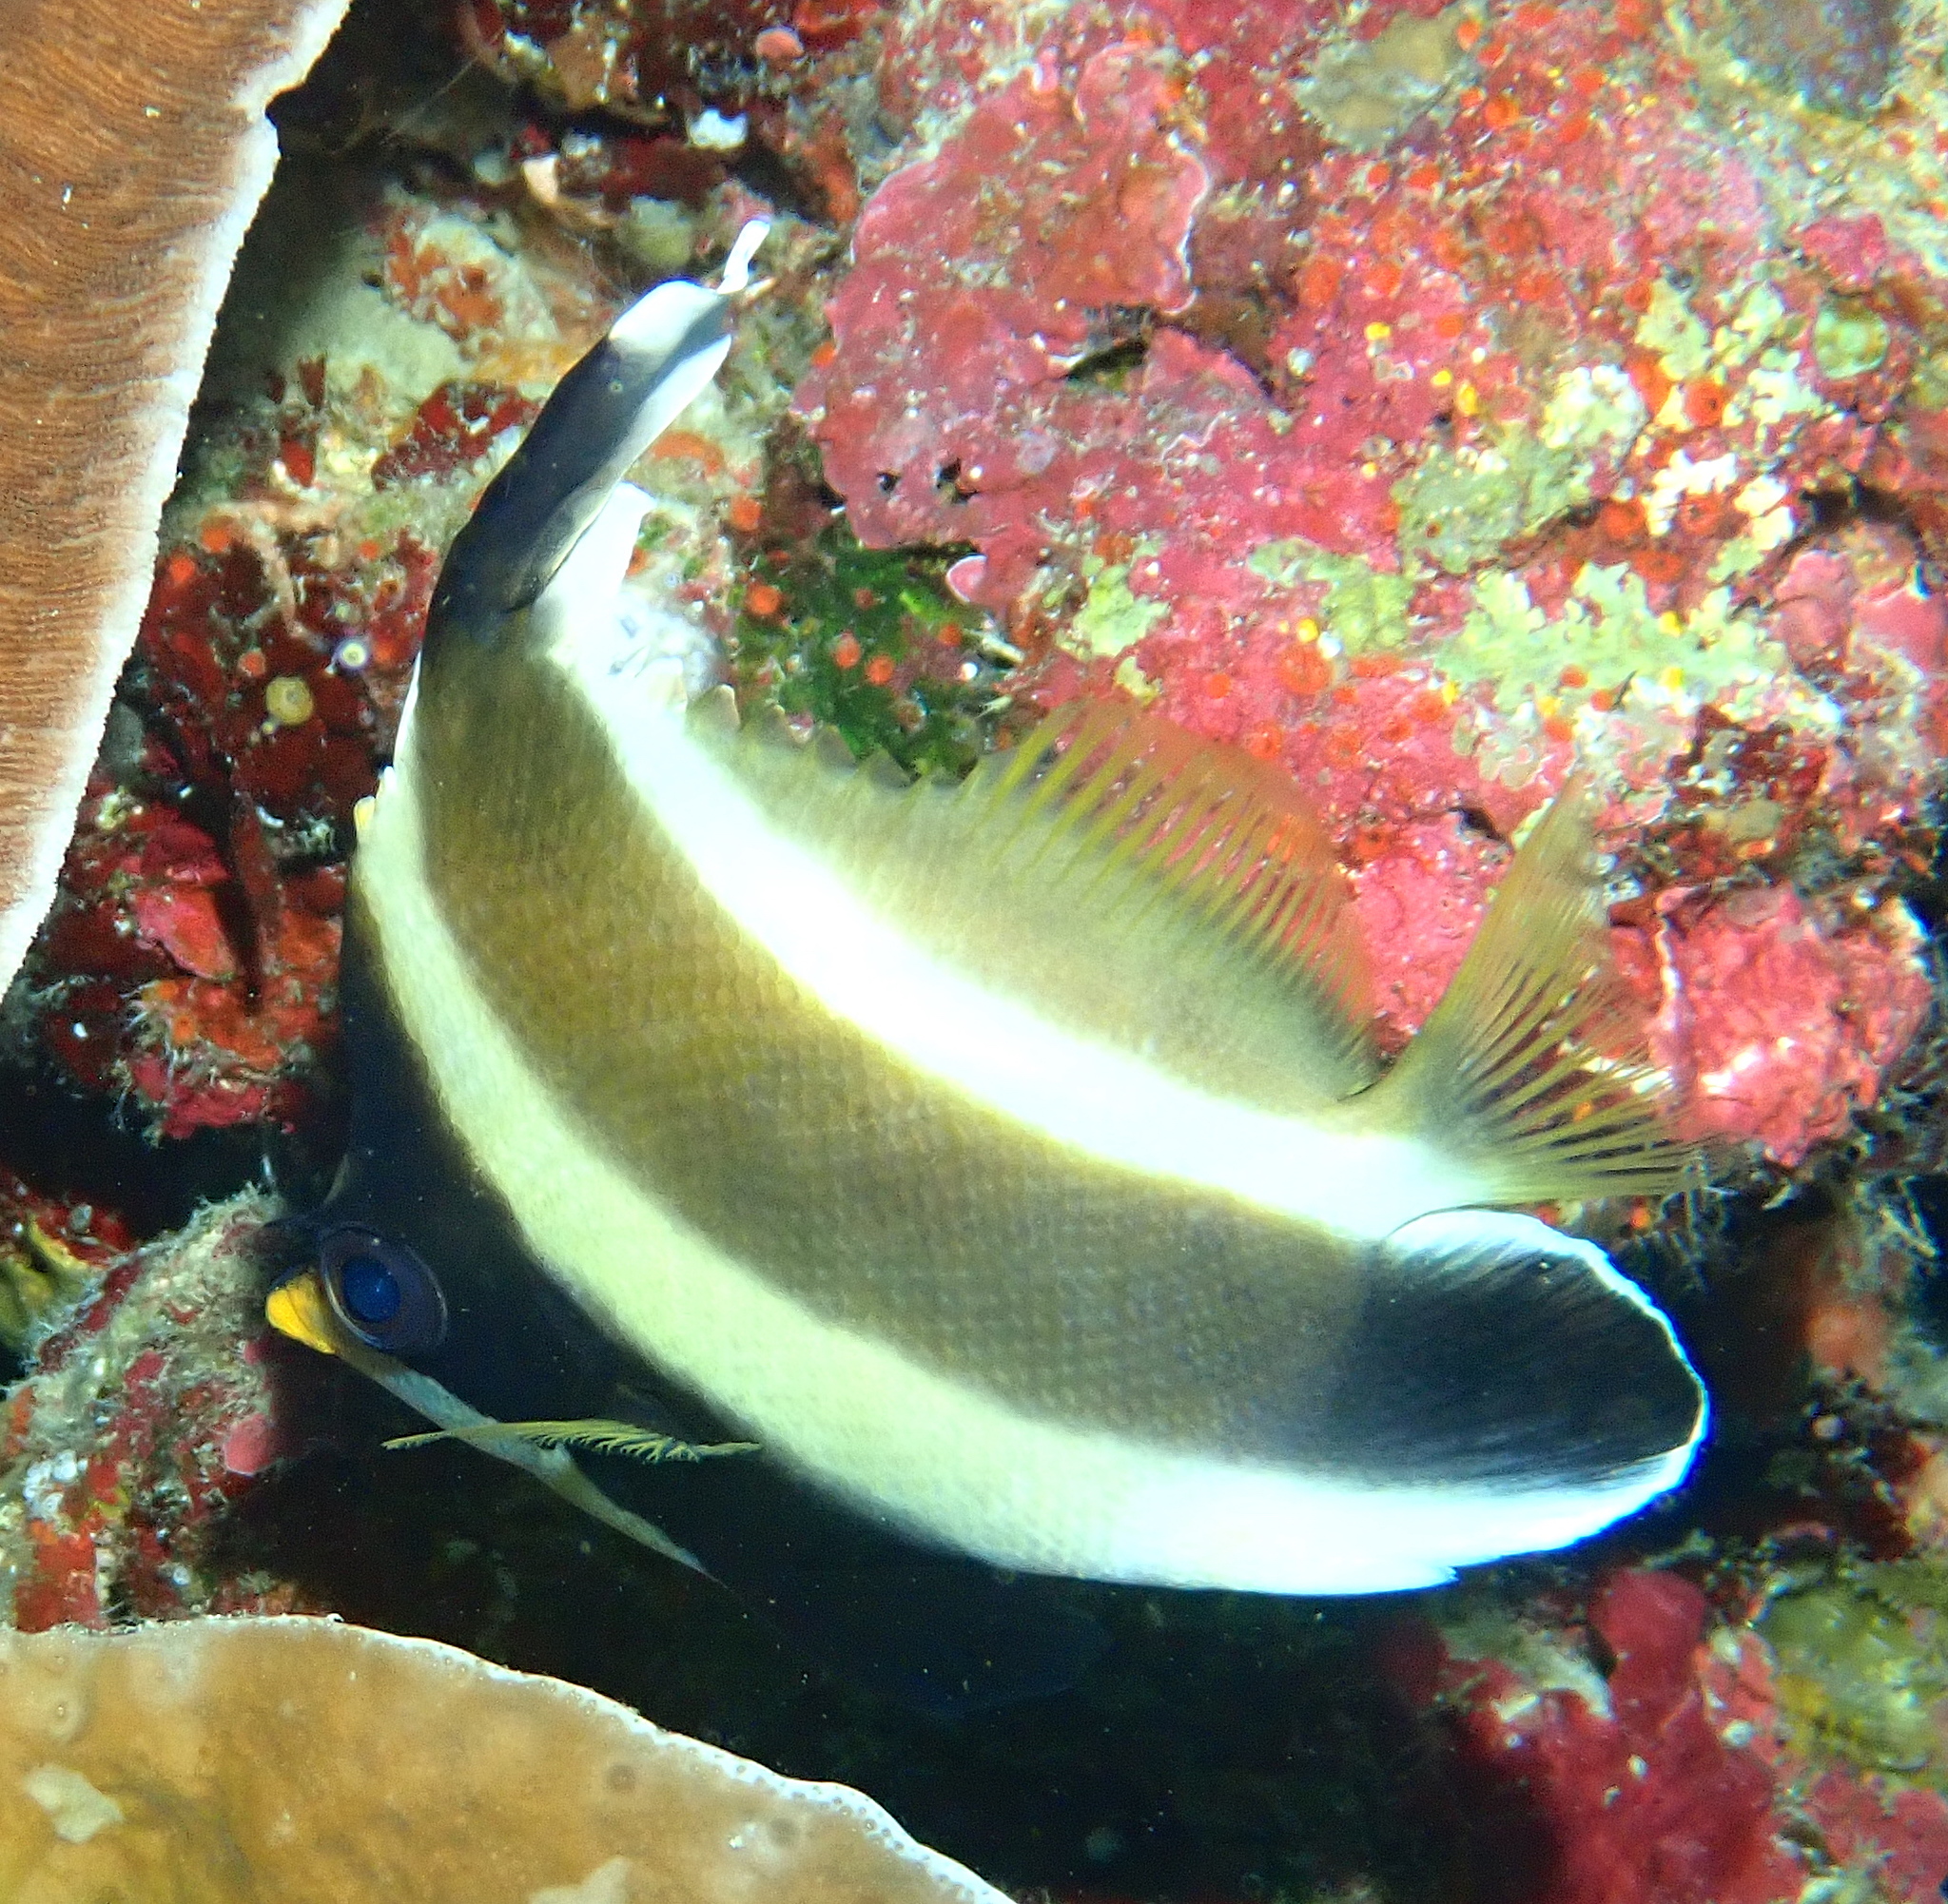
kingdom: Animalia
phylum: Chordata
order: Perciformes
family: Chaetodontidae
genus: Heniochus
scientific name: Heniochus chrysostomus
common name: Horned bannerfish
